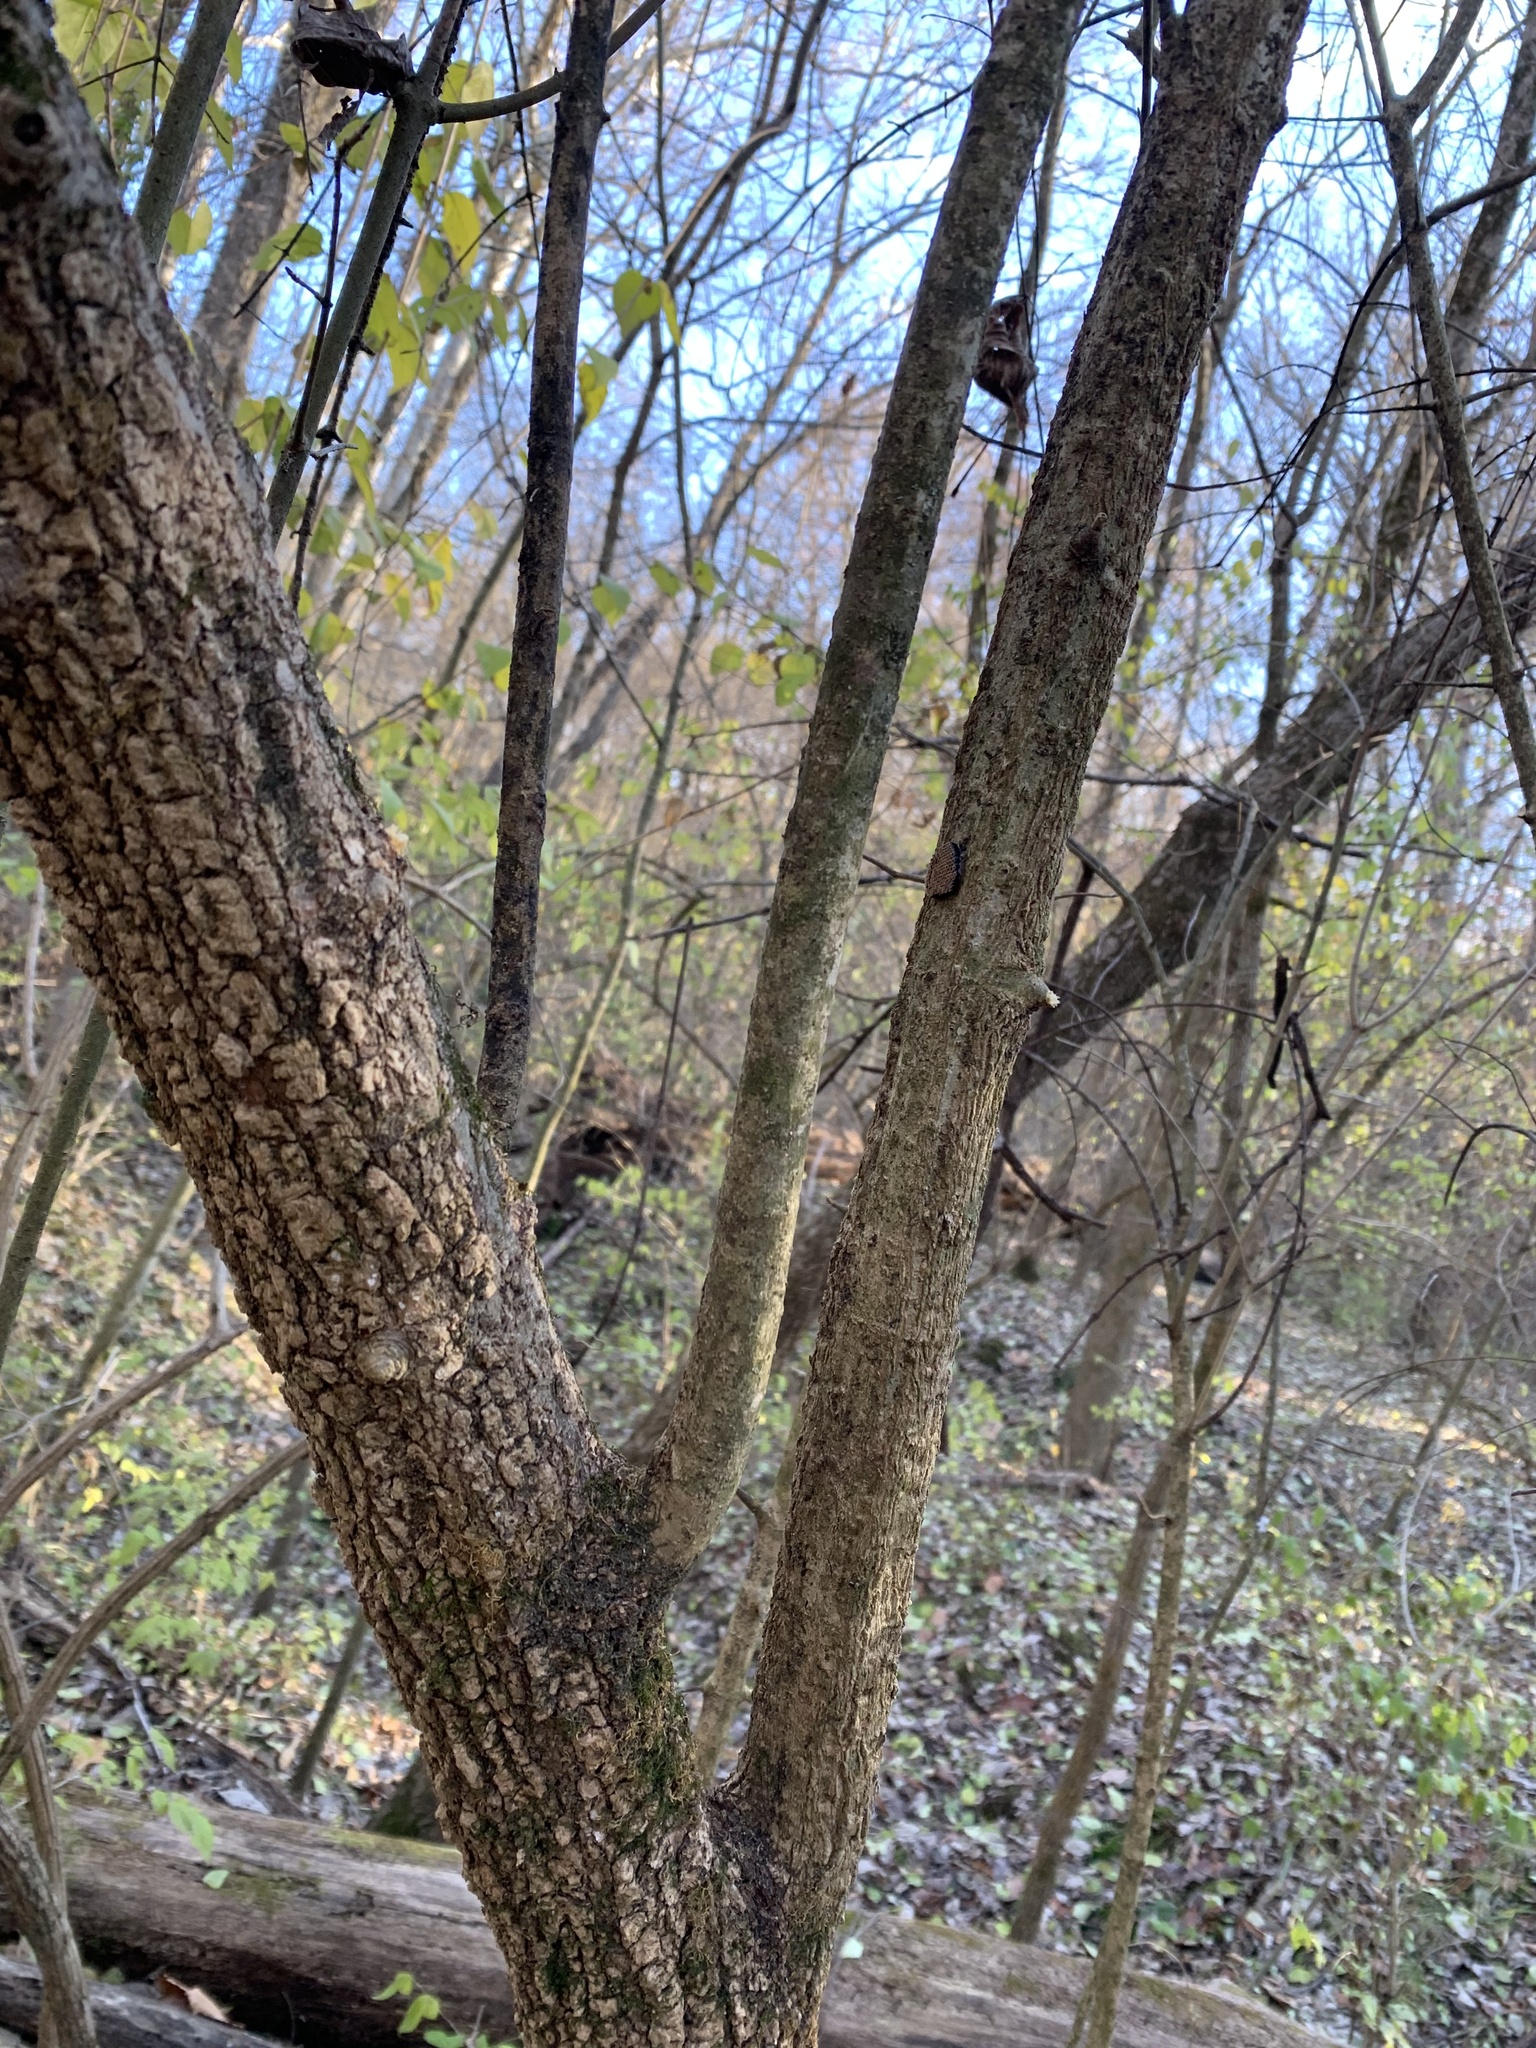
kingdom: Animalia
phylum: Arthropoda
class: Insecta
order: Hemiptera
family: Reduviidae
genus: Arilus
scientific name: Arilus cristatus
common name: North american wheel bug
